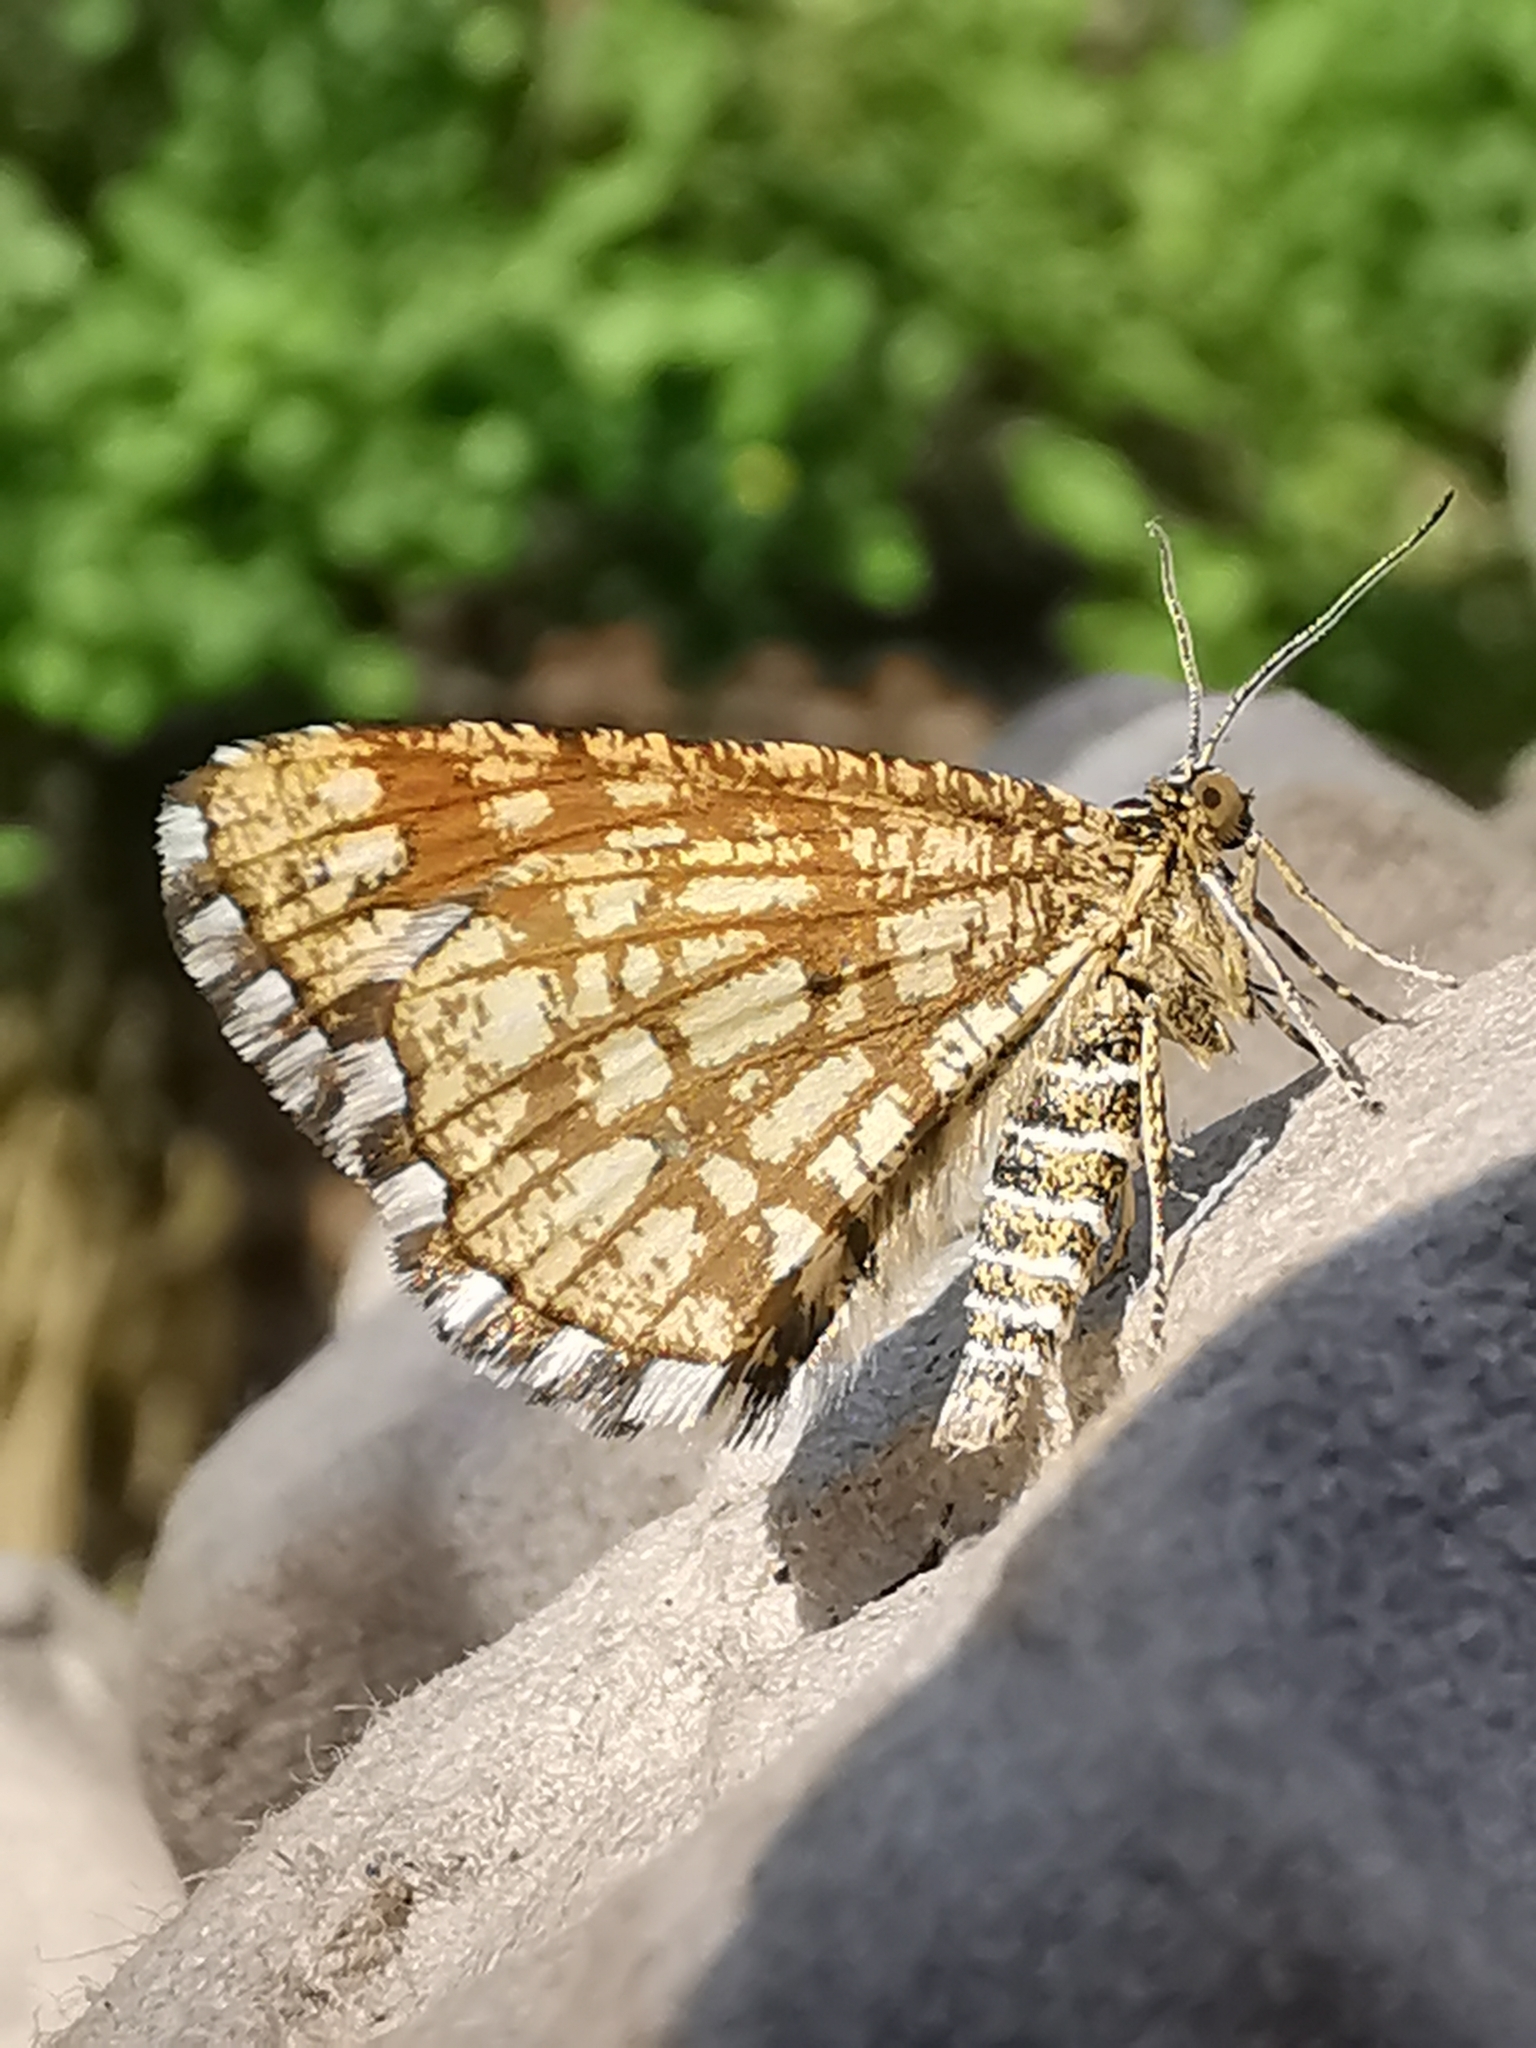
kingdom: Animalia
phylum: Arthropoda
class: Insecta
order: Lepidoptera
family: Geometridae
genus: Chiasmia
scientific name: Chiasmia clathrata
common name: Latticed heath
